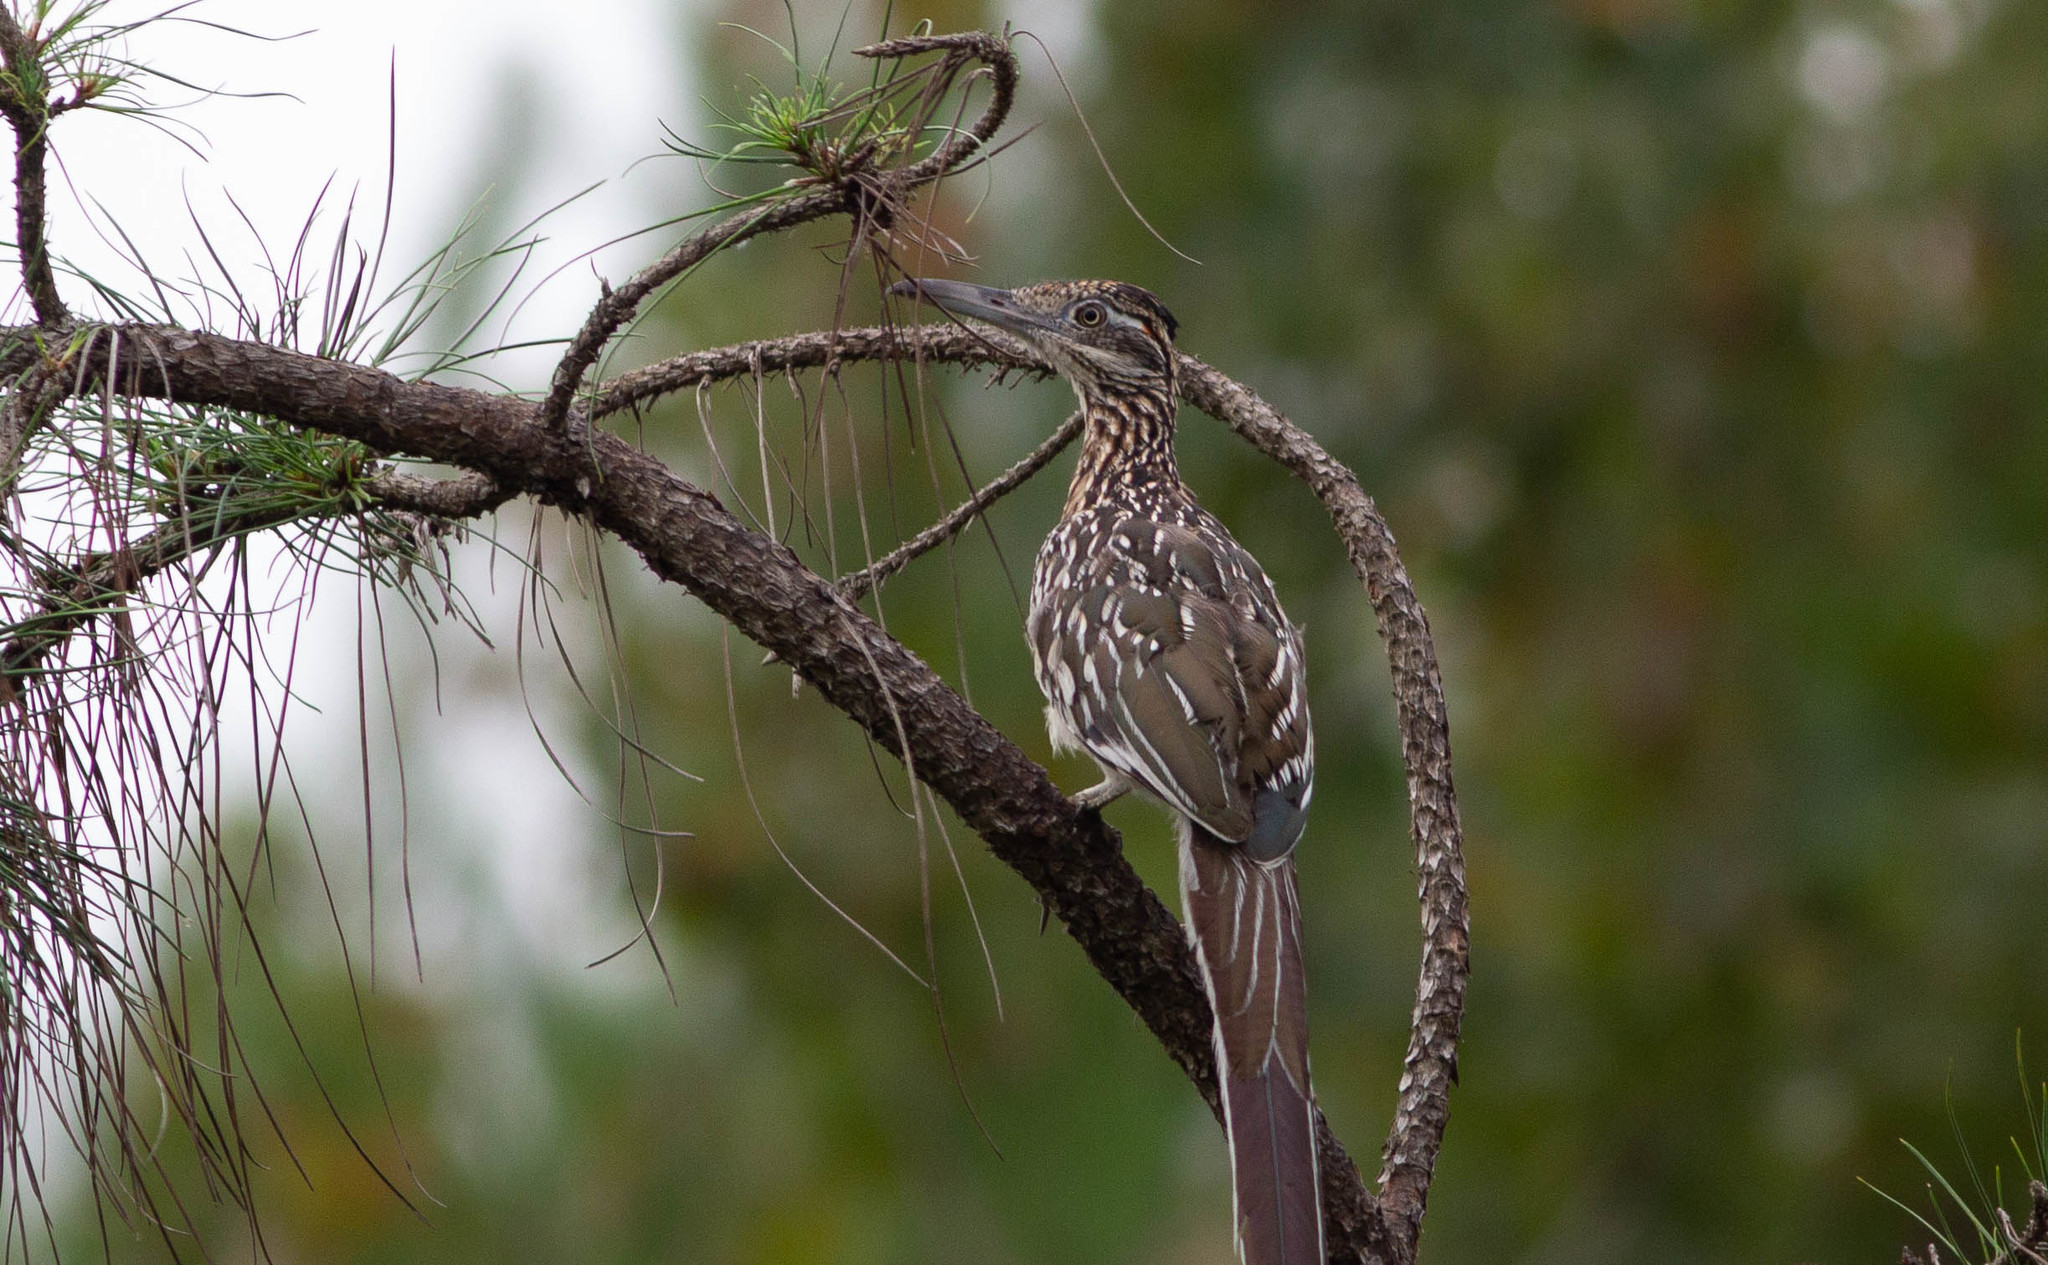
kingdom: Animalia
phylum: Chordata
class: Aves
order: Cuculiformes
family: Cuculidae
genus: Geococcyx
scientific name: Geococcyx californianus
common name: Greater roadrunner
